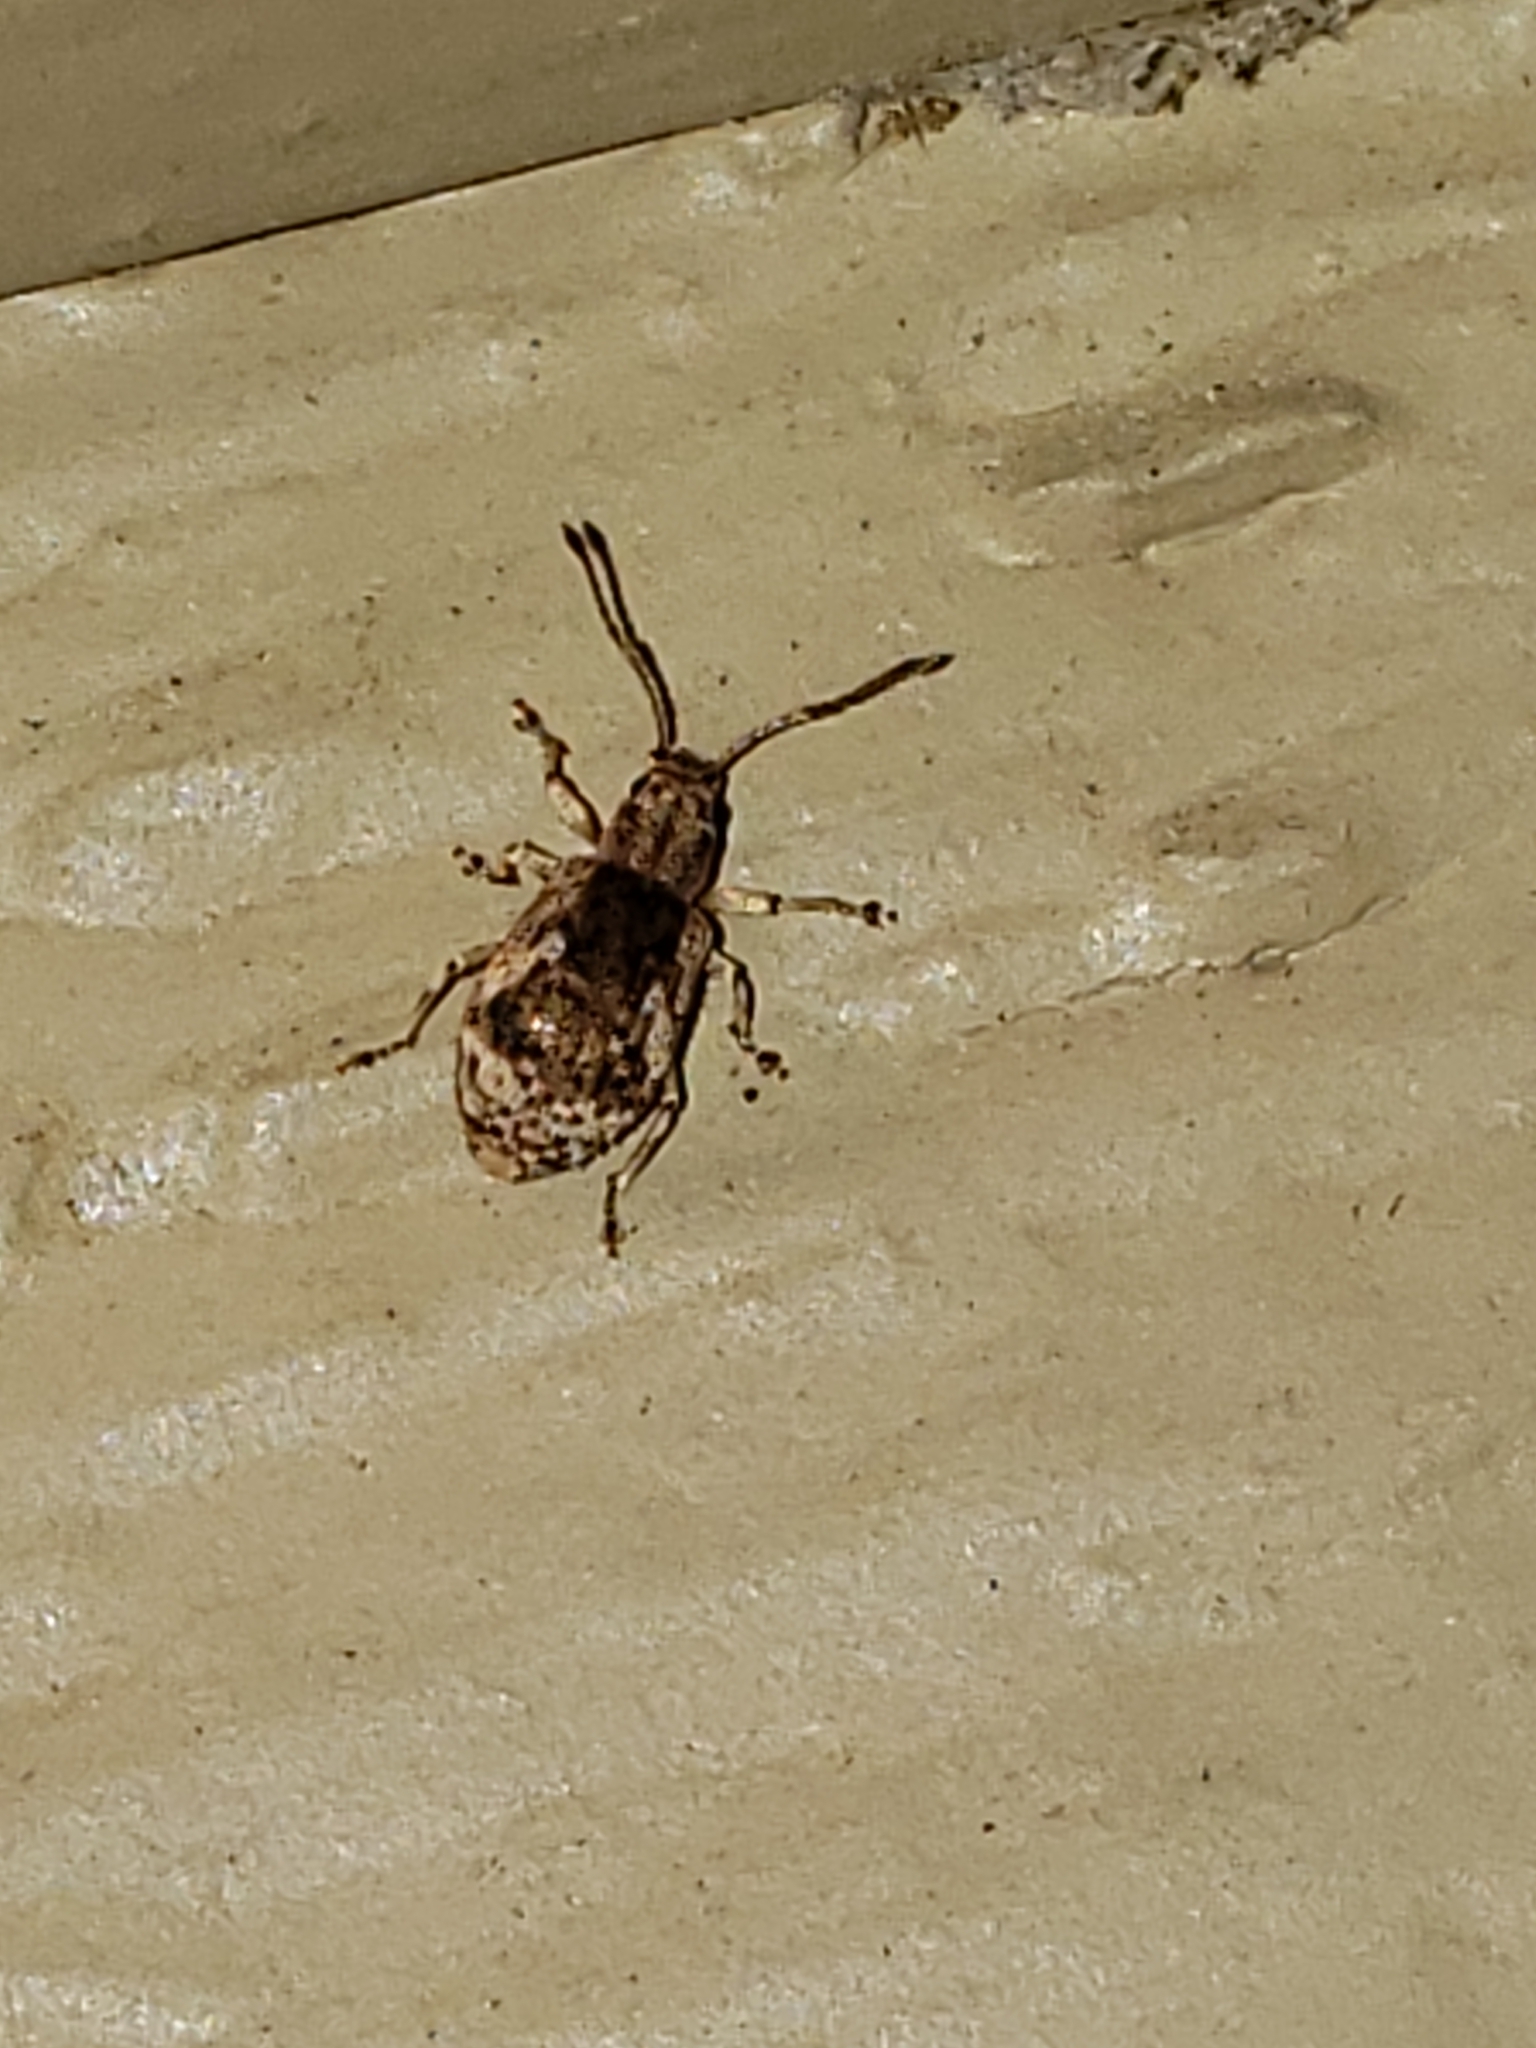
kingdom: Animalia
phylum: Arthropoda
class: Insecta
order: Coleoptera
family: Curculionidae
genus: Pseudoedophrys
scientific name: Pseudoedophrys hilleri
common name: Weevil
